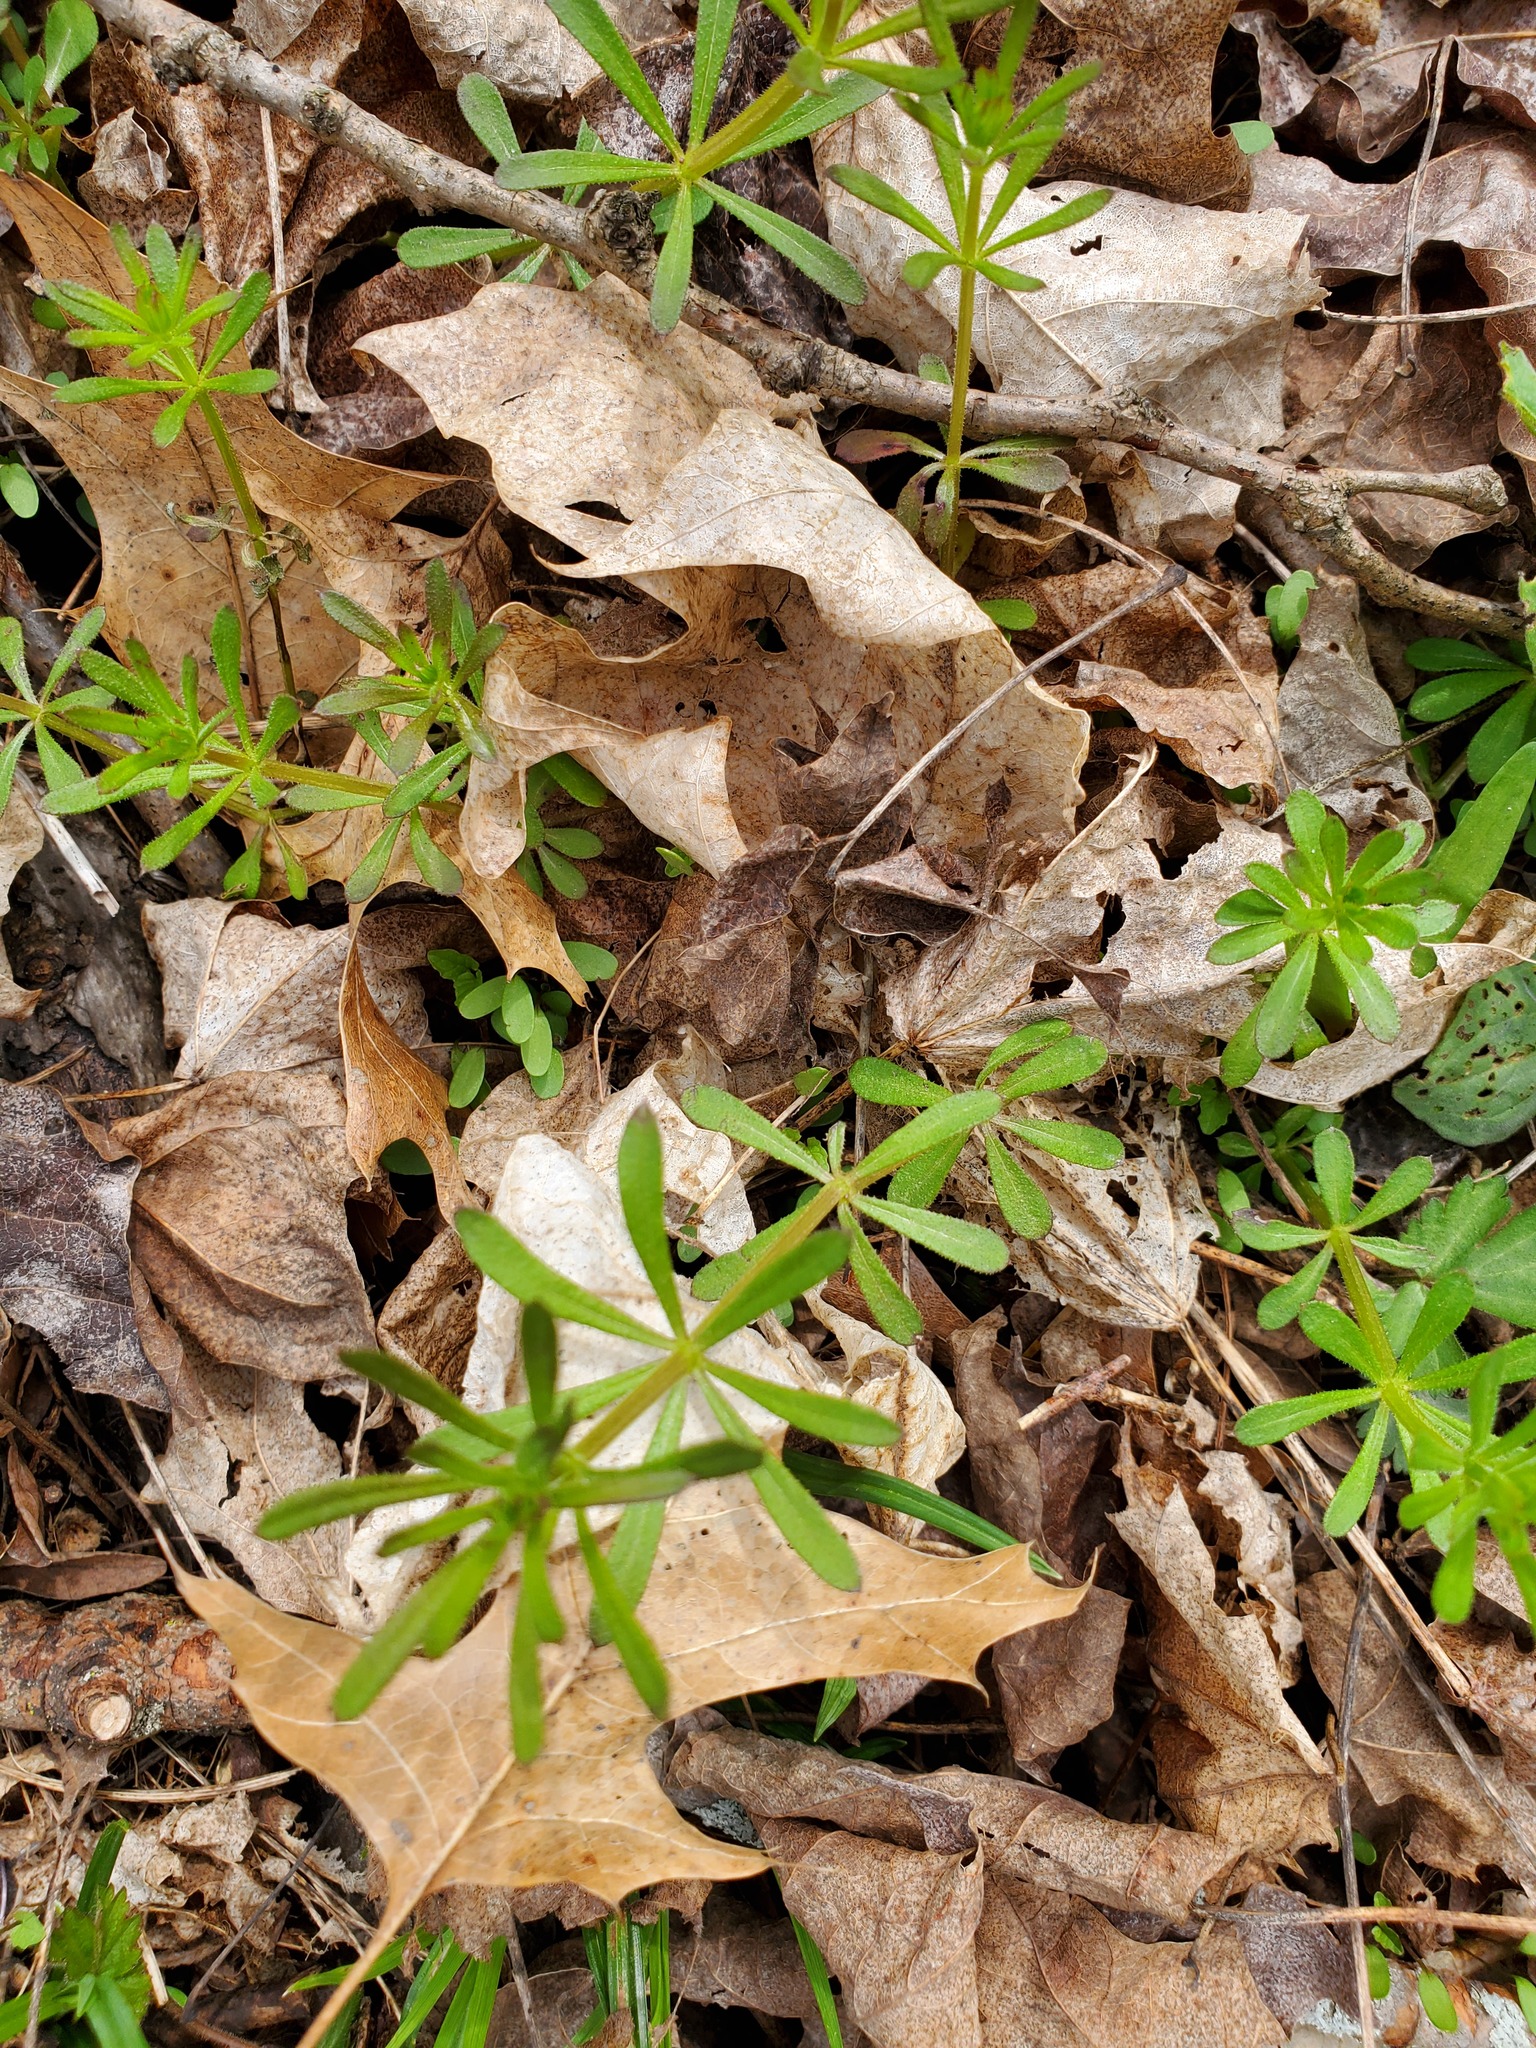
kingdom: Plantae
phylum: Tracheophyta
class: Magnoliopsida
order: Gentianales
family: Rubiaceae
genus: Galium
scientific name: Galium aparine
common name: Cleavers
